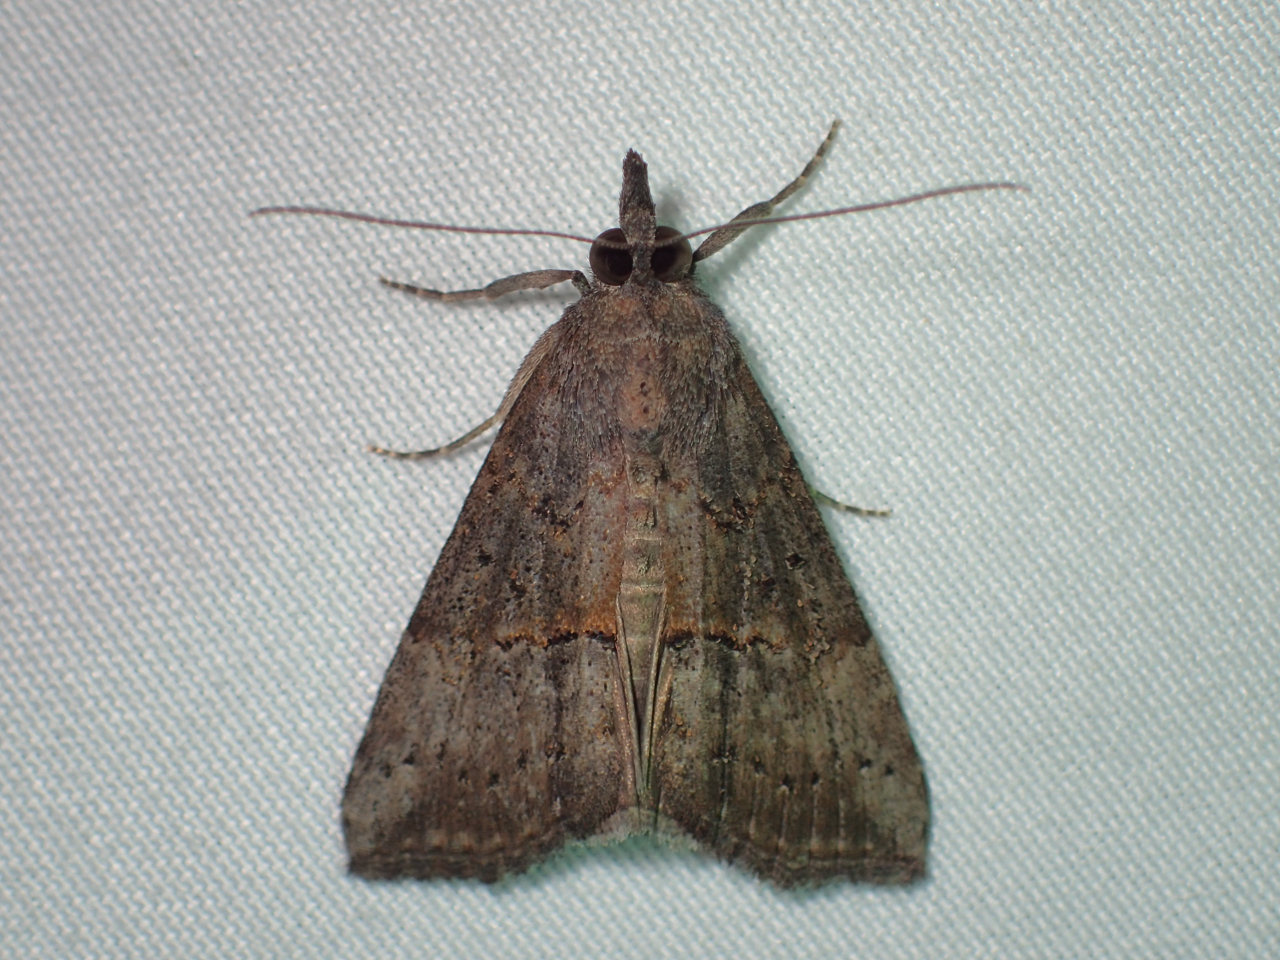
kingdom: Animalia
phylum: Arthropoda
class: Insecta
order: Lepidoptera
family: Erebidae
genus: Hypena
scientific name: Hypena scabra
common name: Green cloverworm
